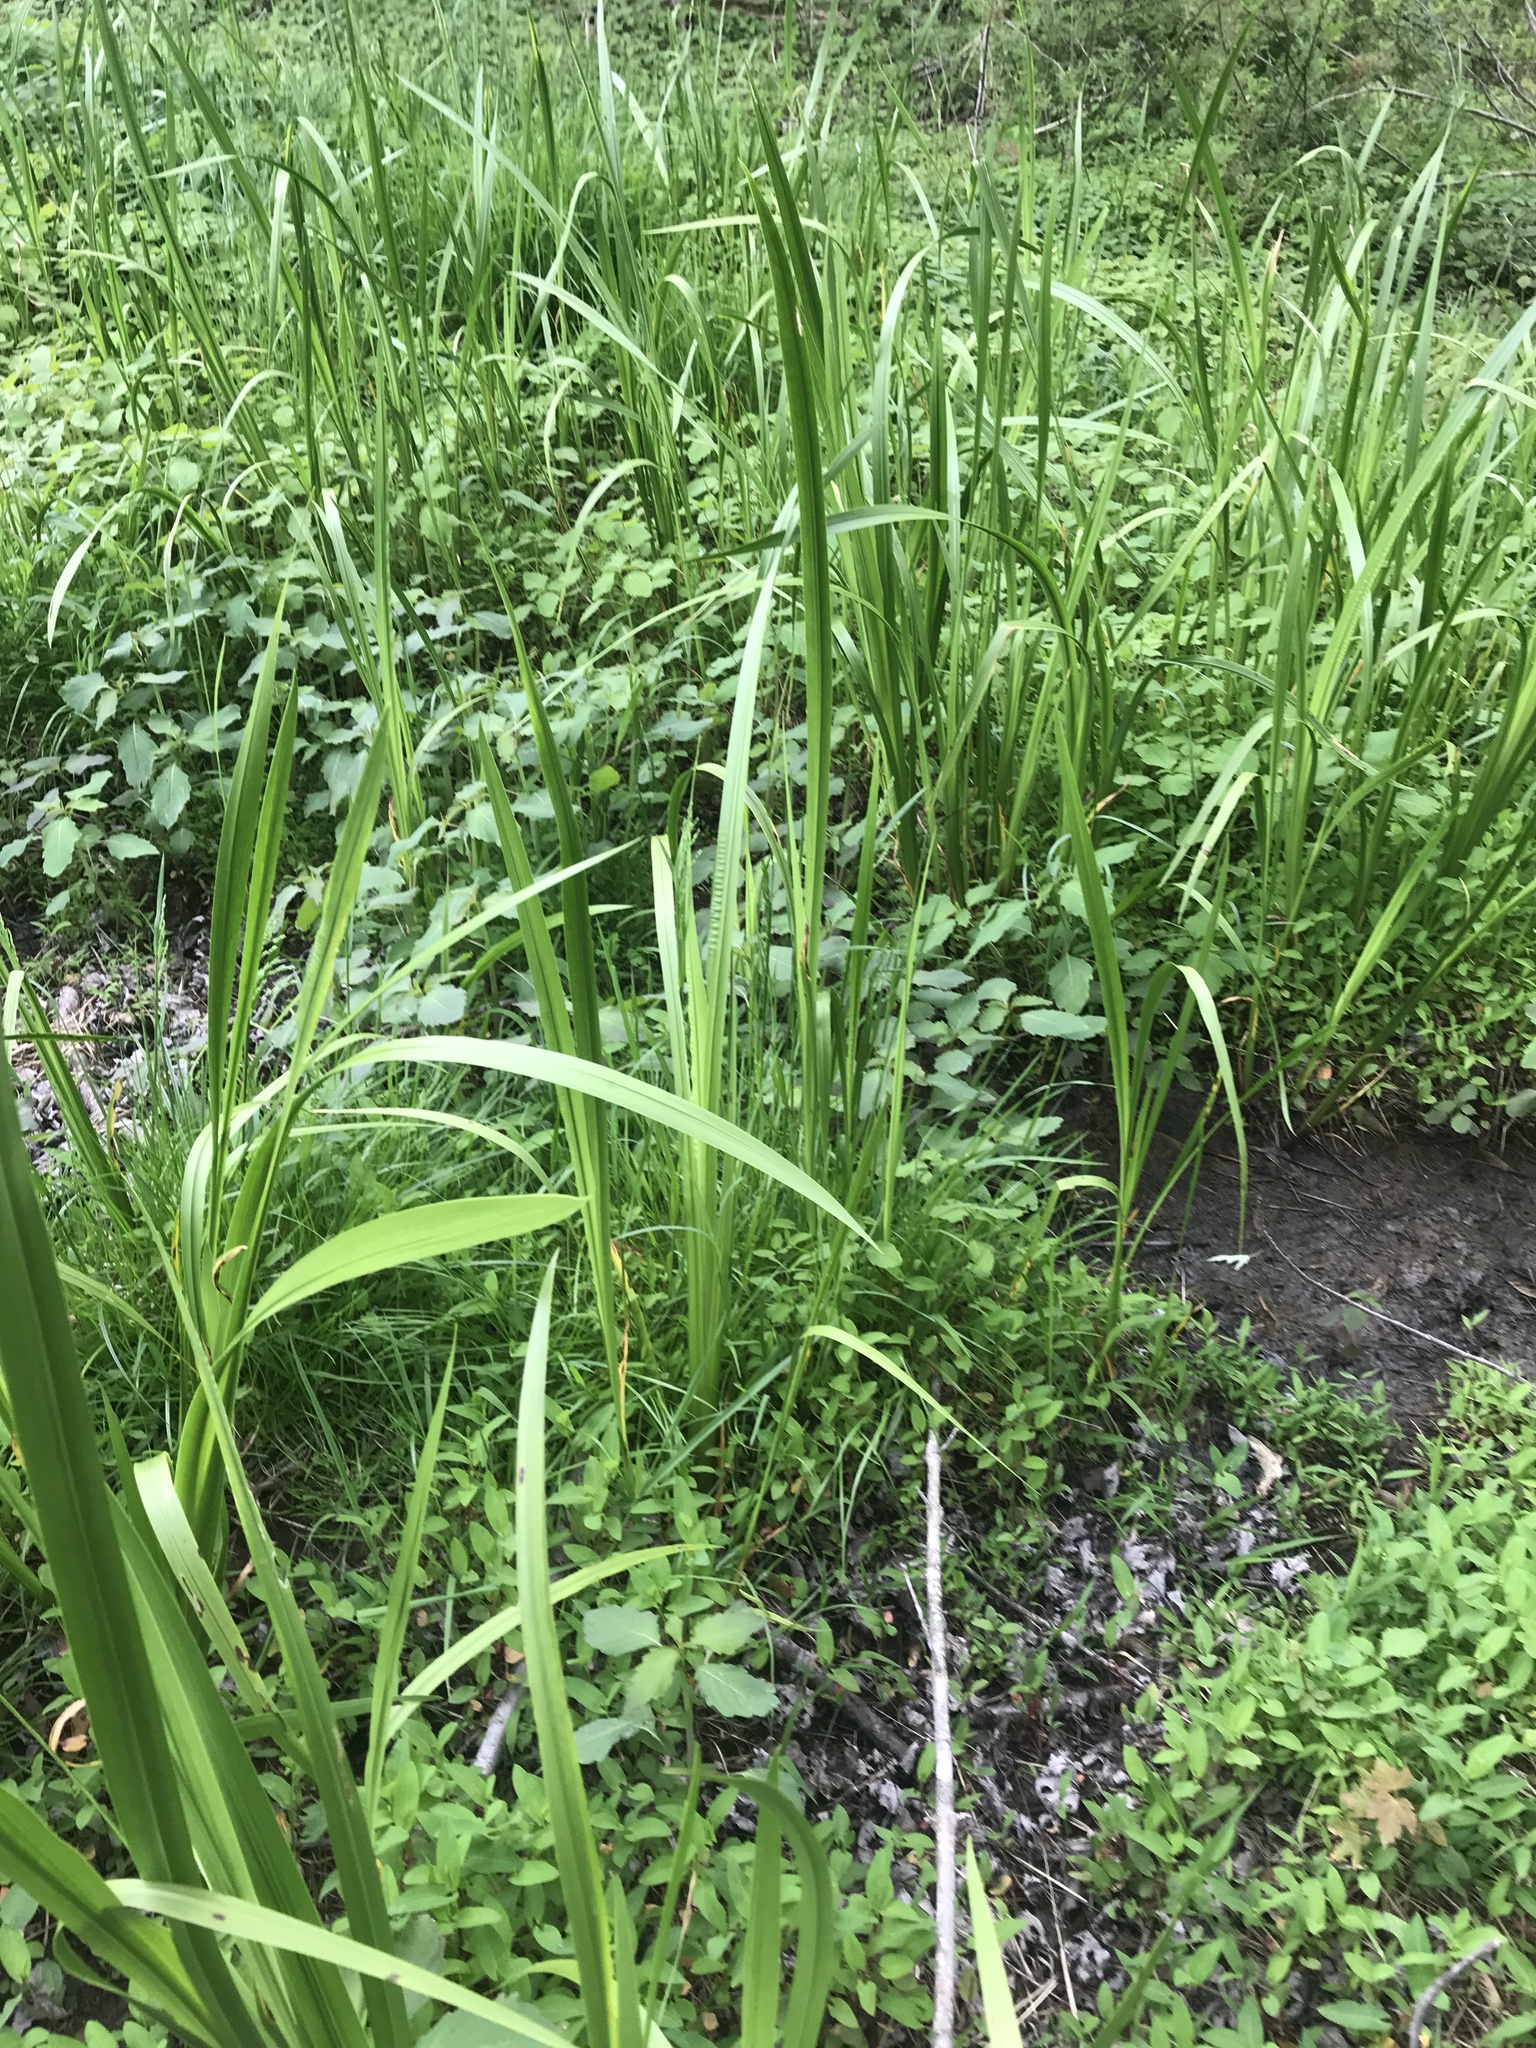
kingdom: Plantae
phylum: Tracheophyta
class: Liliopsida
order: Acorales
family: Acoraceae
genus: Acorus
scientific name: Acorus calamus
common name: Sweet-flag
